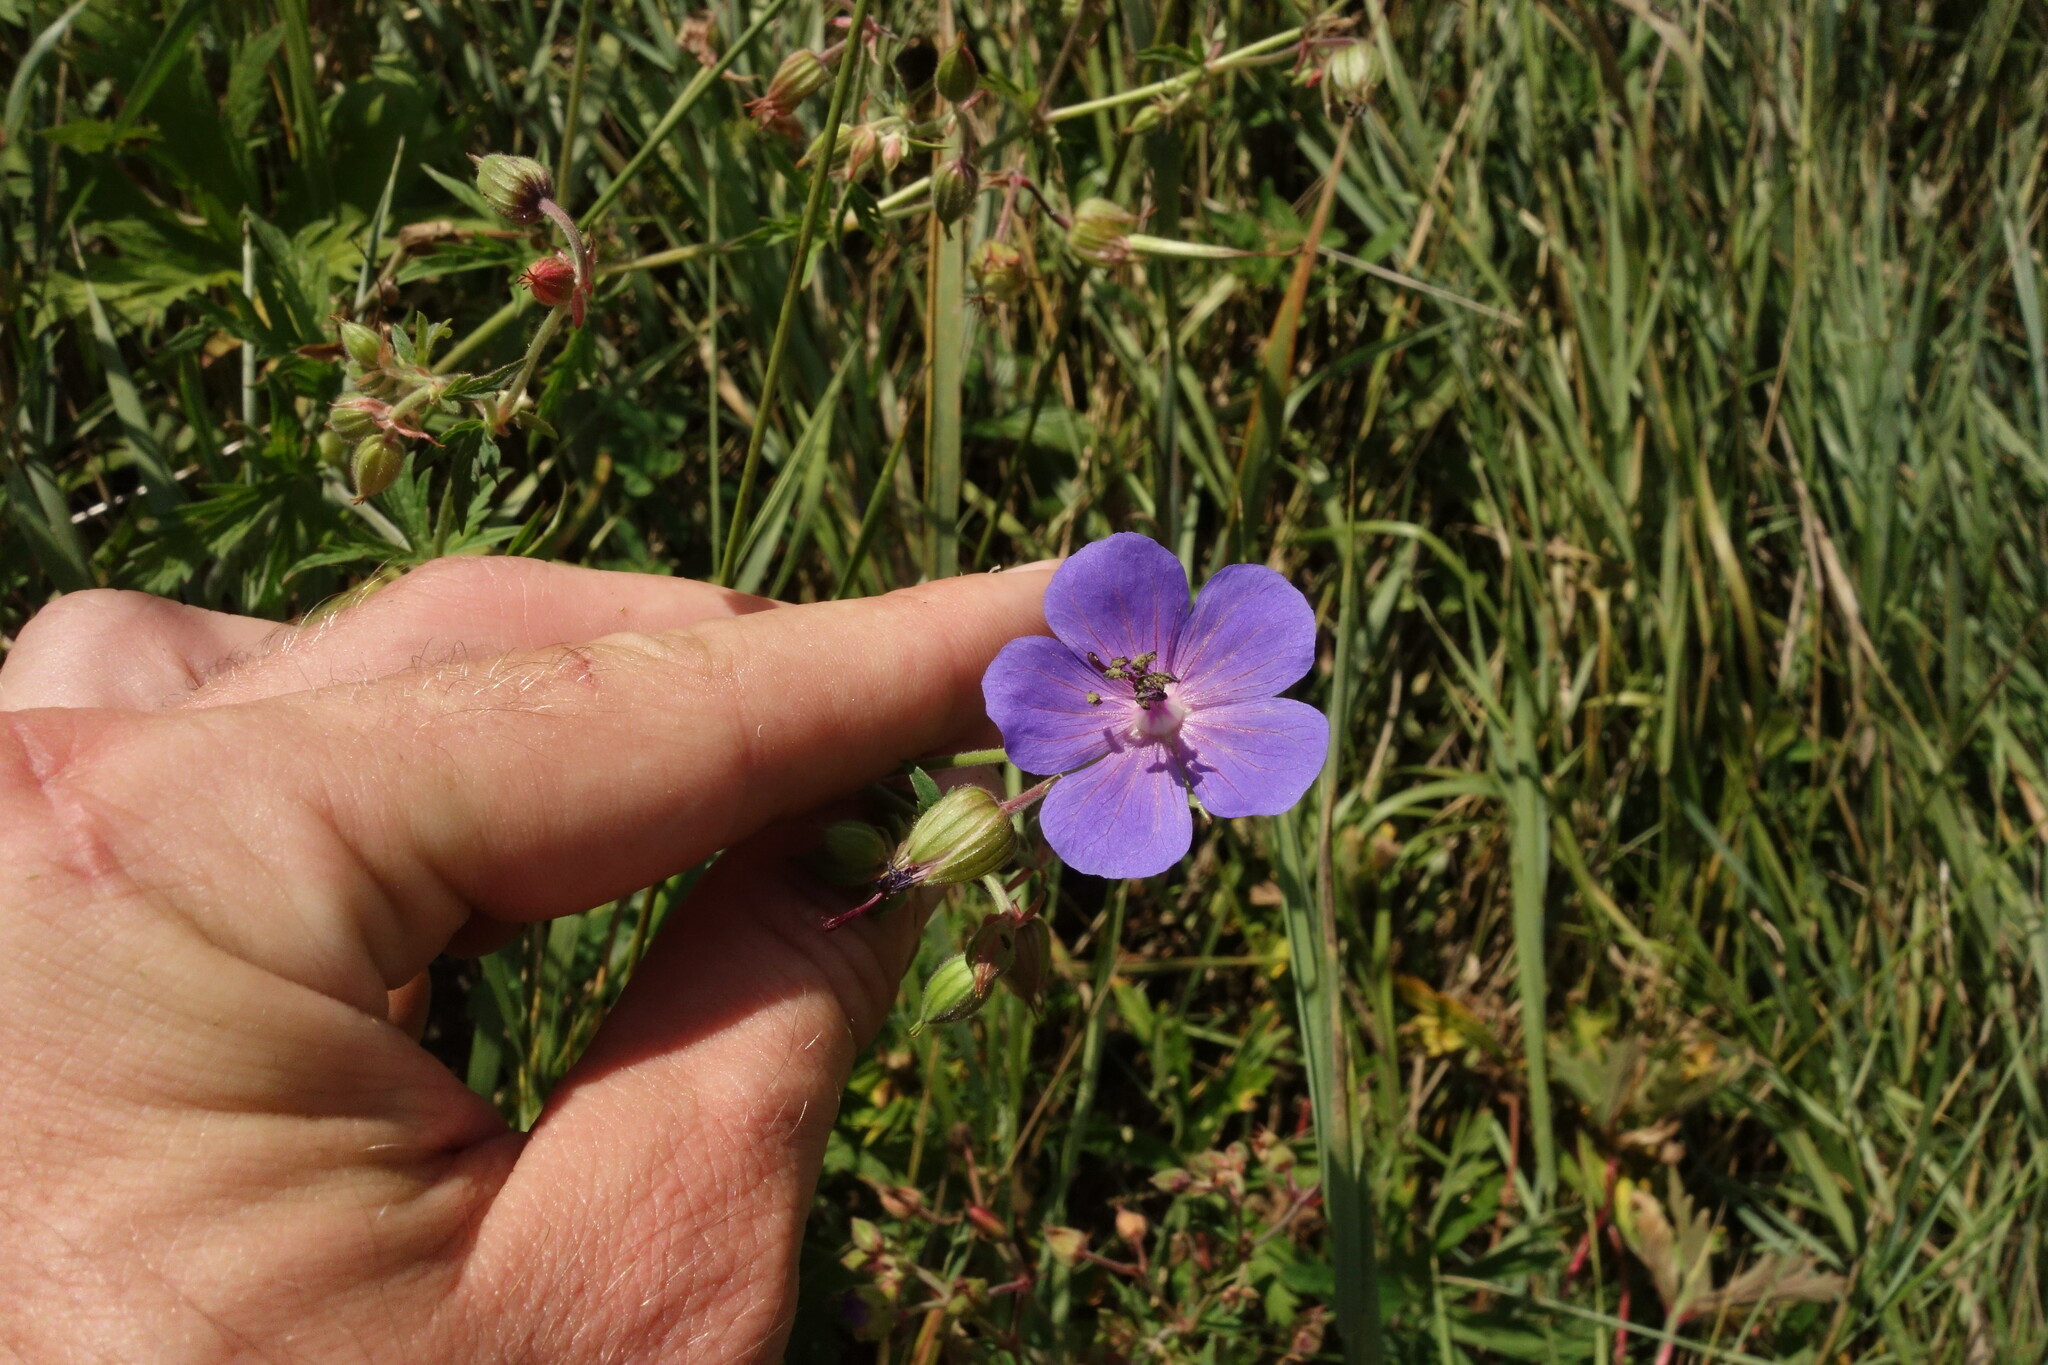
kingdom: Plantae
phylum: Tracheophyta
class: Magnoliopsida
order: Geraniales
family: Geraniaceae
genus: Geranium
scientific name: Geranium pratense
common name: Meadow crane's-bill
